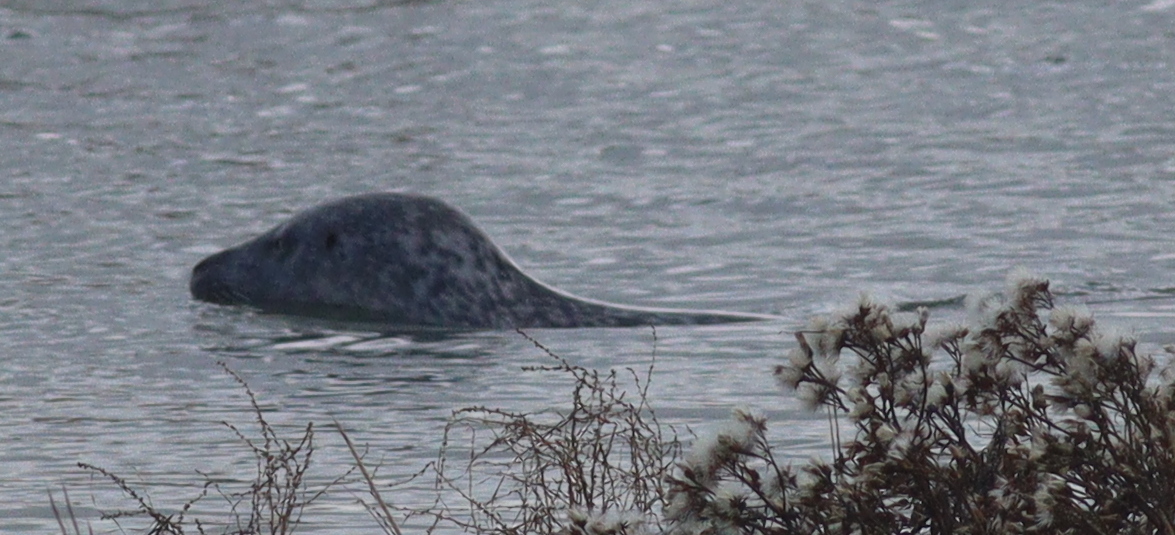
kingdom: Animalia
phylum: Chordata
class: Mammalia
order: Carnivora
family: Phocidae
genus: Phoca
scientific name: Phoca vitulina
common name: Harbor seal
